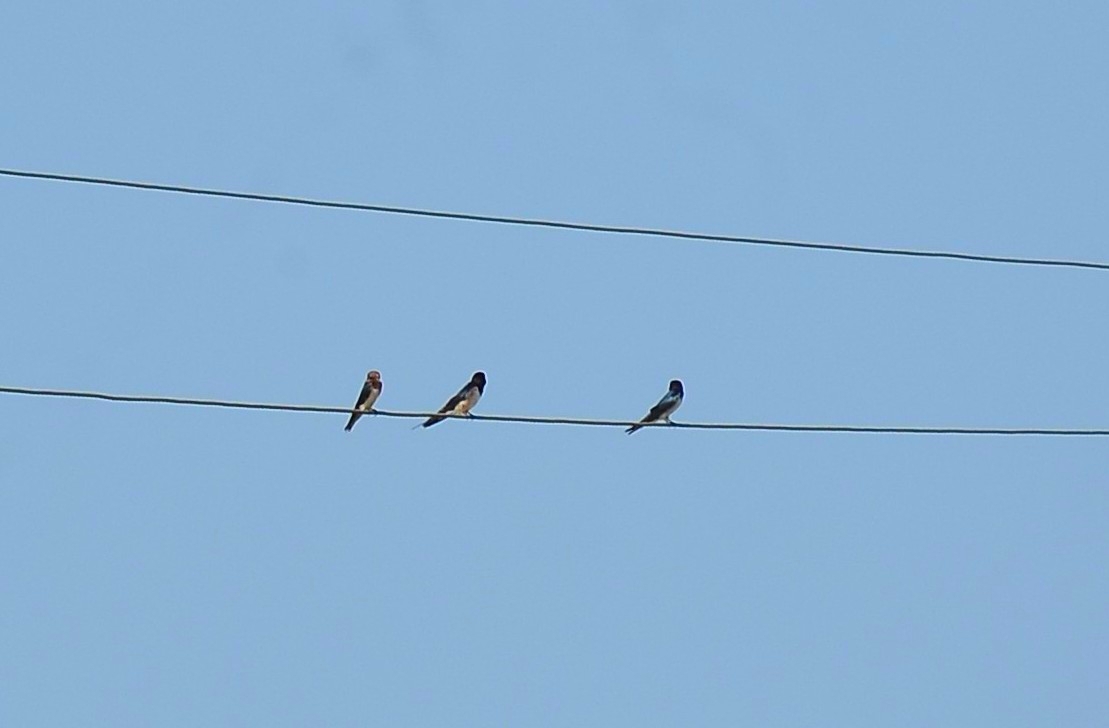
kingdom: Animalia
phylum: Chordata
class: Aves
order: Passeriformes
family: Hirundinidae
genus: Hirundo
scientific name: Hirundo rustica
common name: Barn swallow
